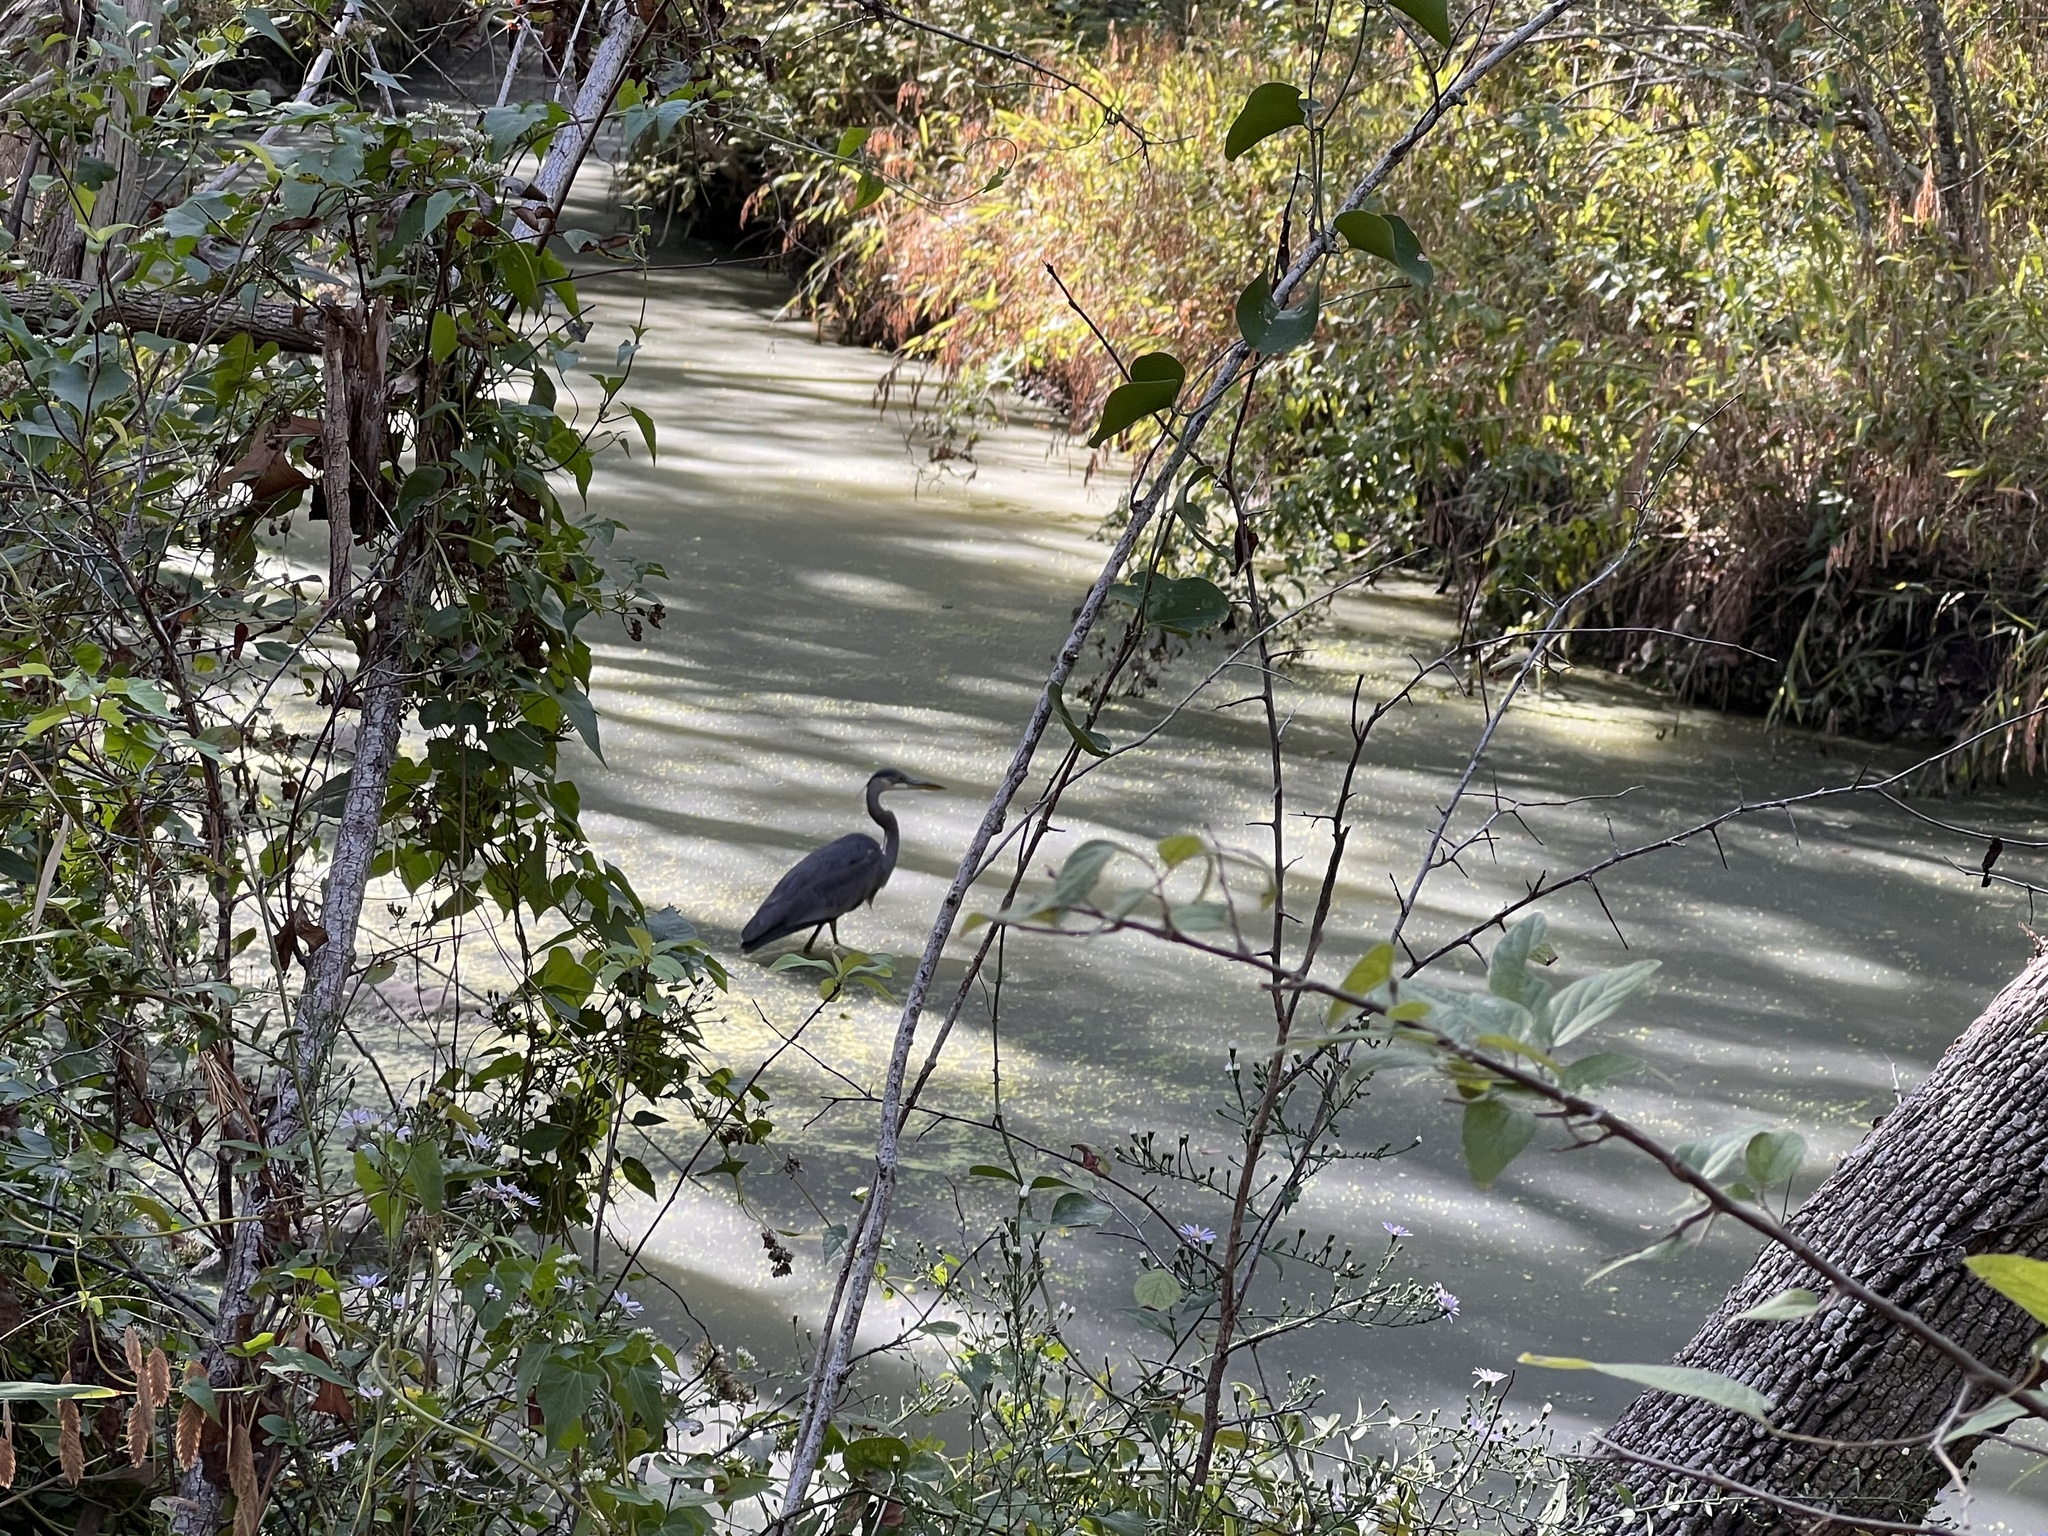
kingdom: Animalia
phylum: Chordata
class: Aves
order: Pelecaniformes
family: Ardeidae
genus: Ardea
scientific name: Ardea herodias
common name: Great blue heron
